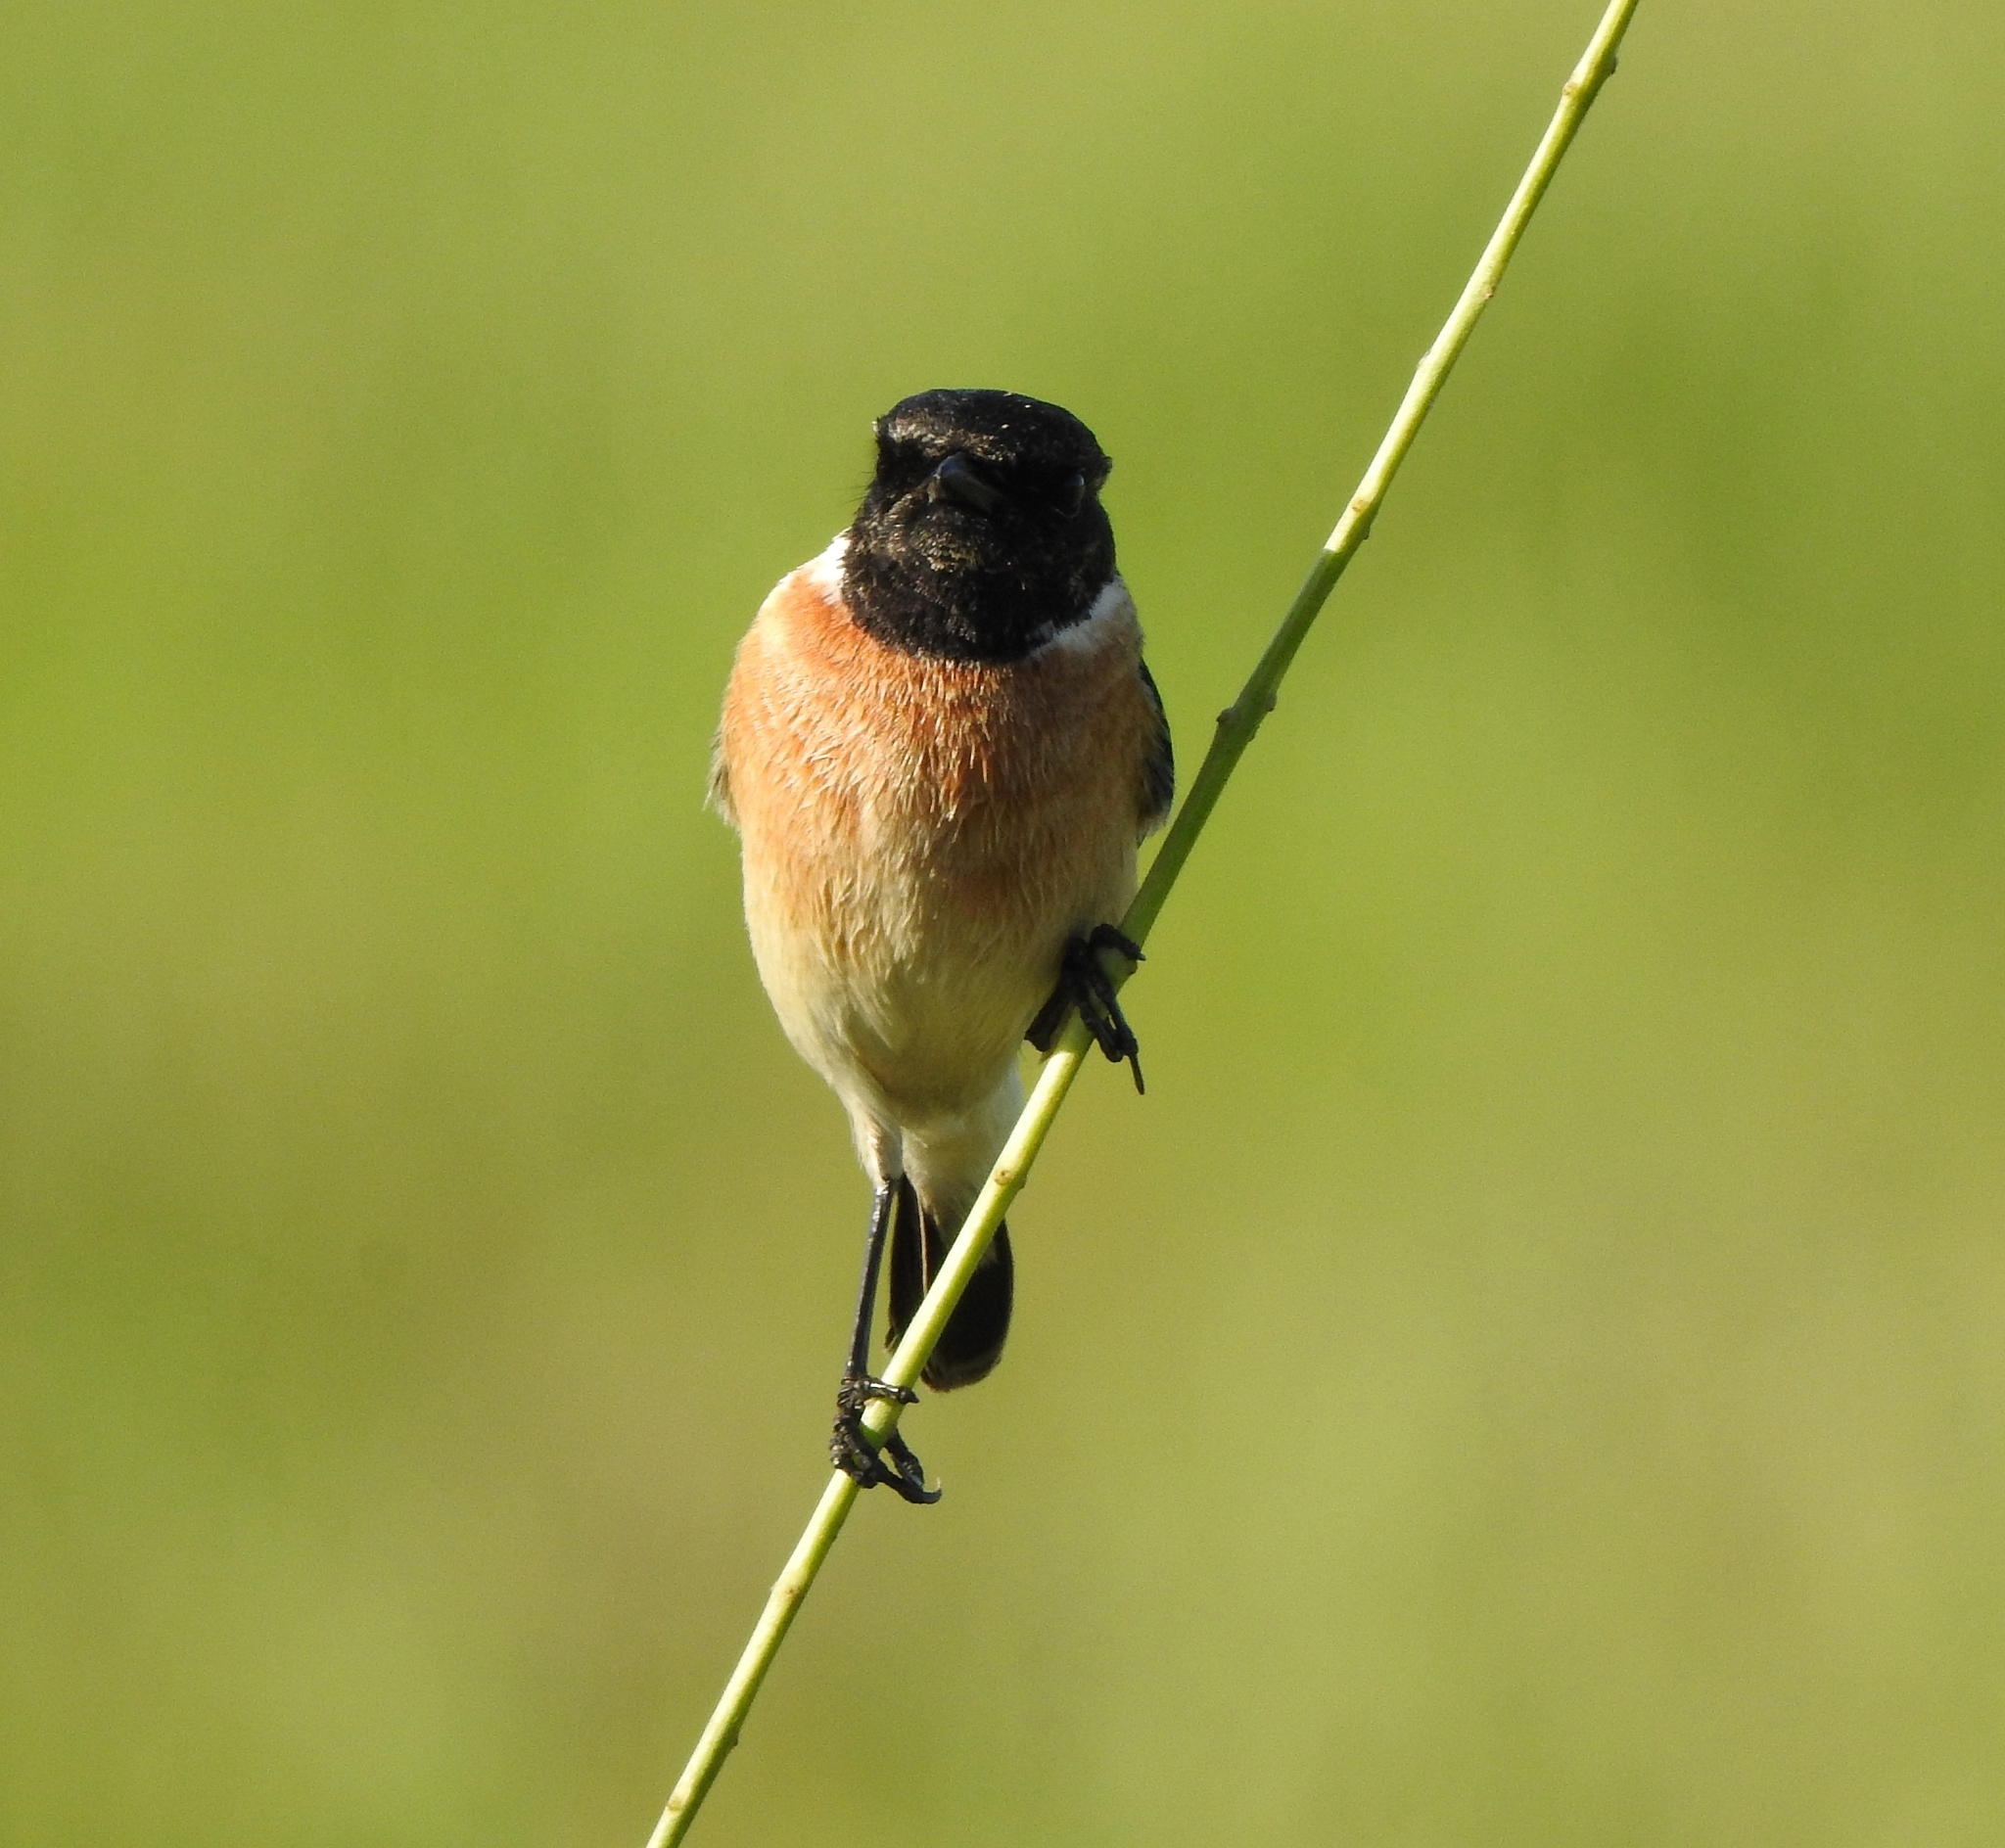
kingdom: Animalia
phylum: Chordata
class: Aves
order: Passeriformes
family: Muscicapidae
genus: Saxicola
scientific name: Saxicola maurus
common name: Siberian stonechat
